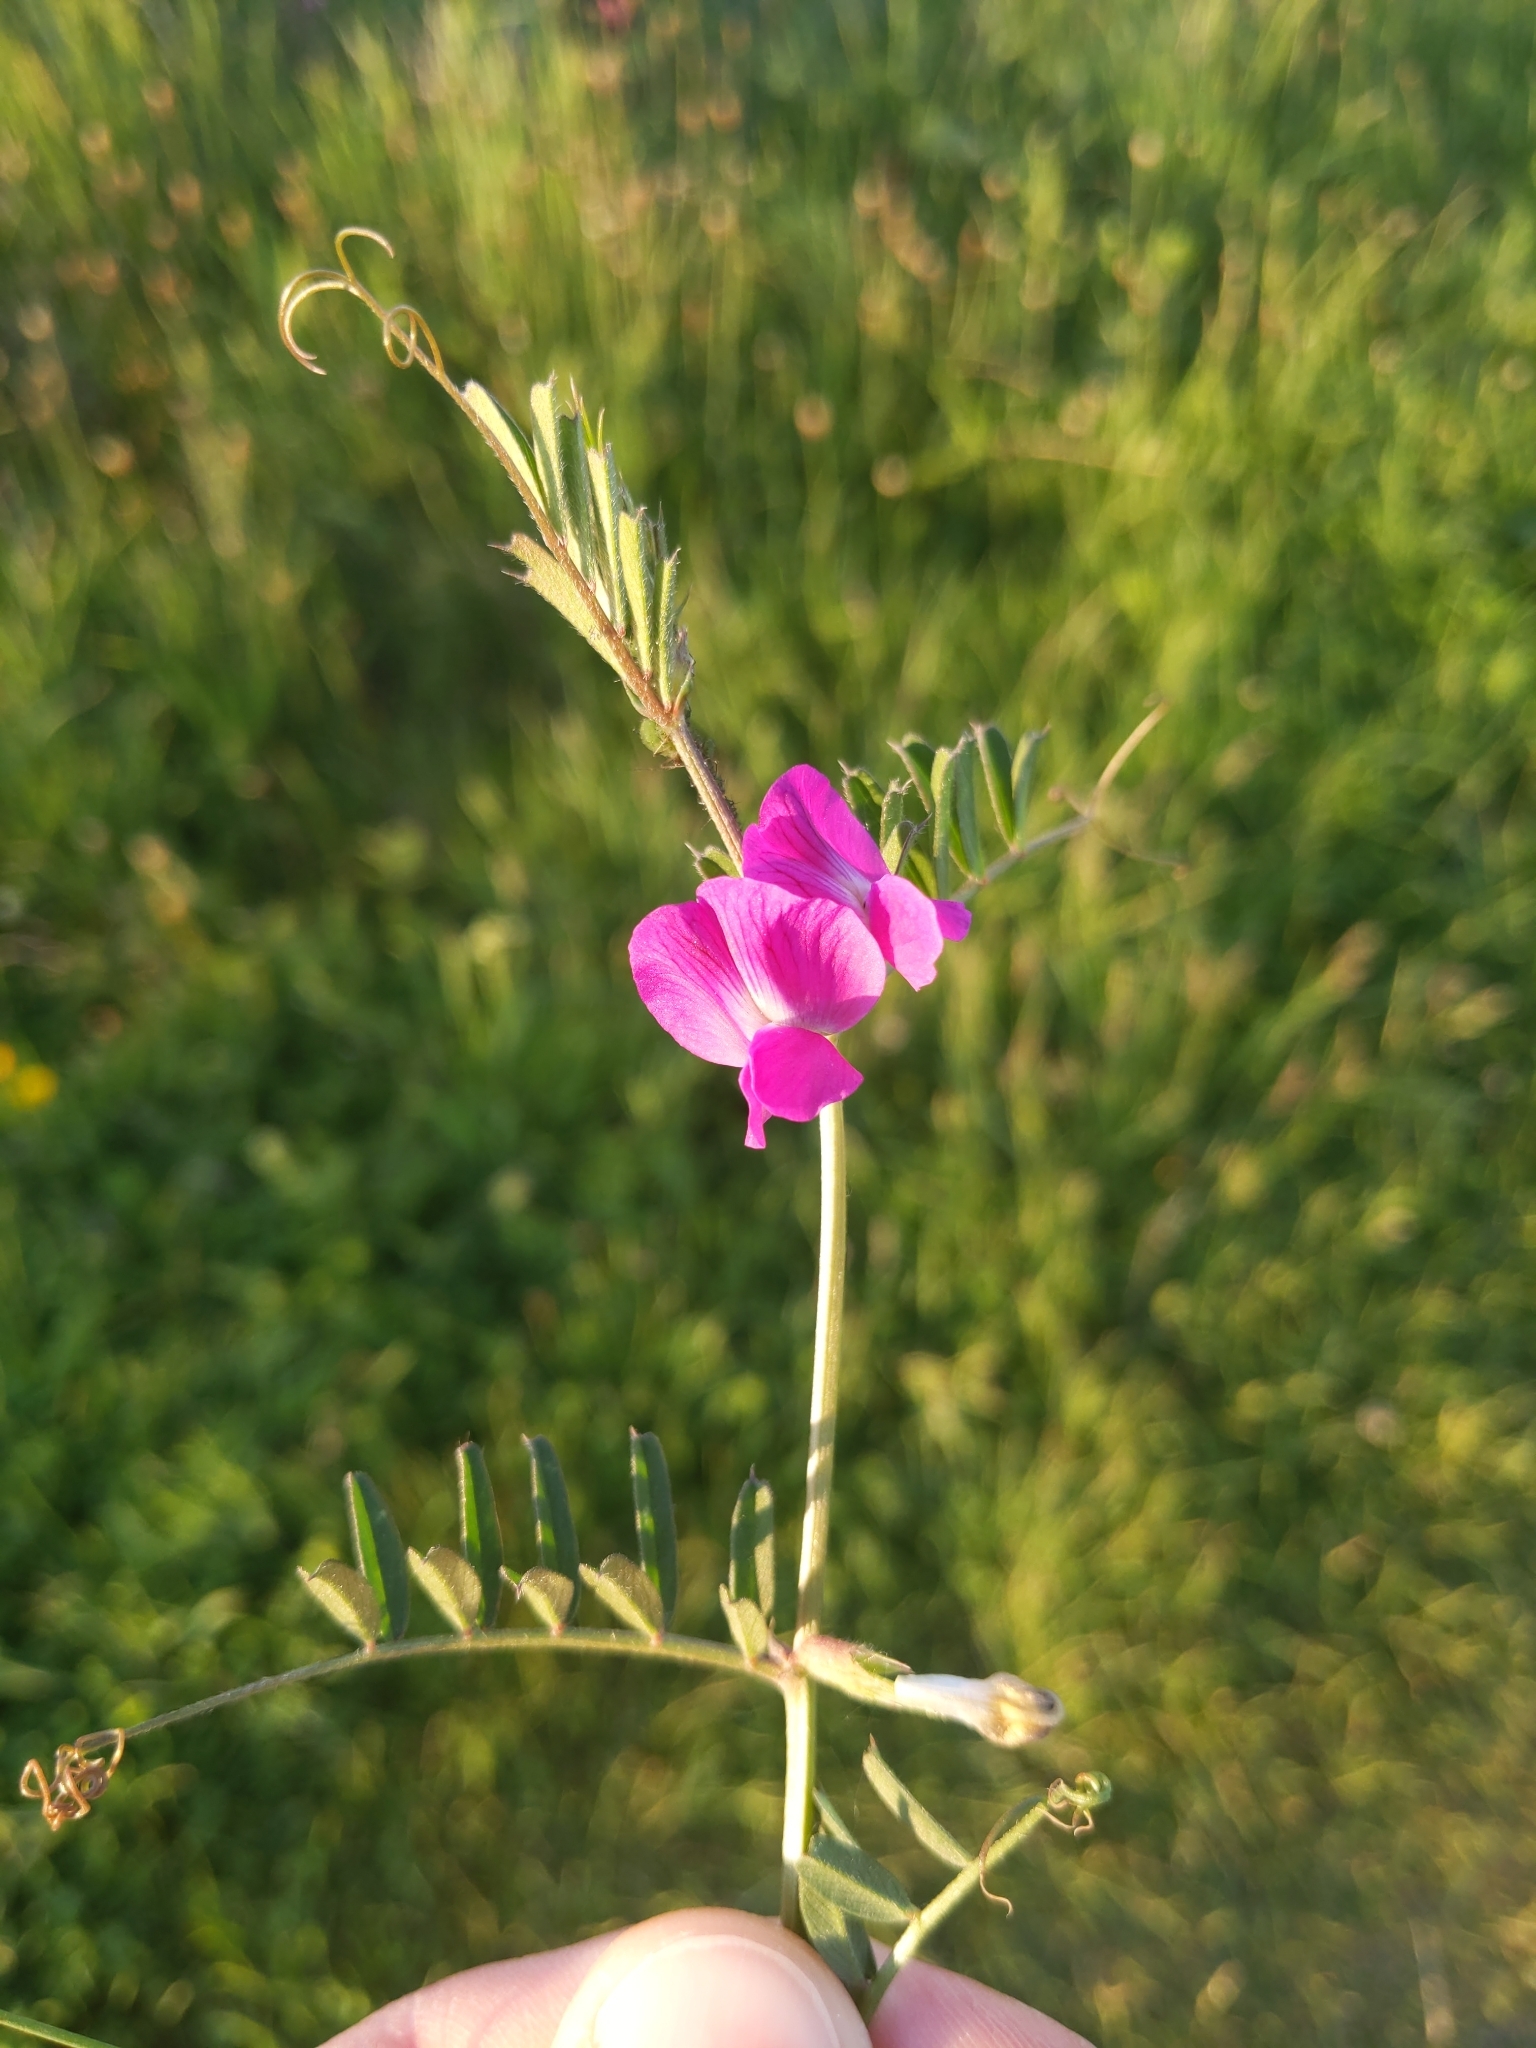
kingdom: Plantae
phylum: Tracheophyta
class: Magnoliopsida
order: Fabales
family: Fabaceae
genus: Vicia
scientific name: Vicia sativa
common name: Garden vetch
